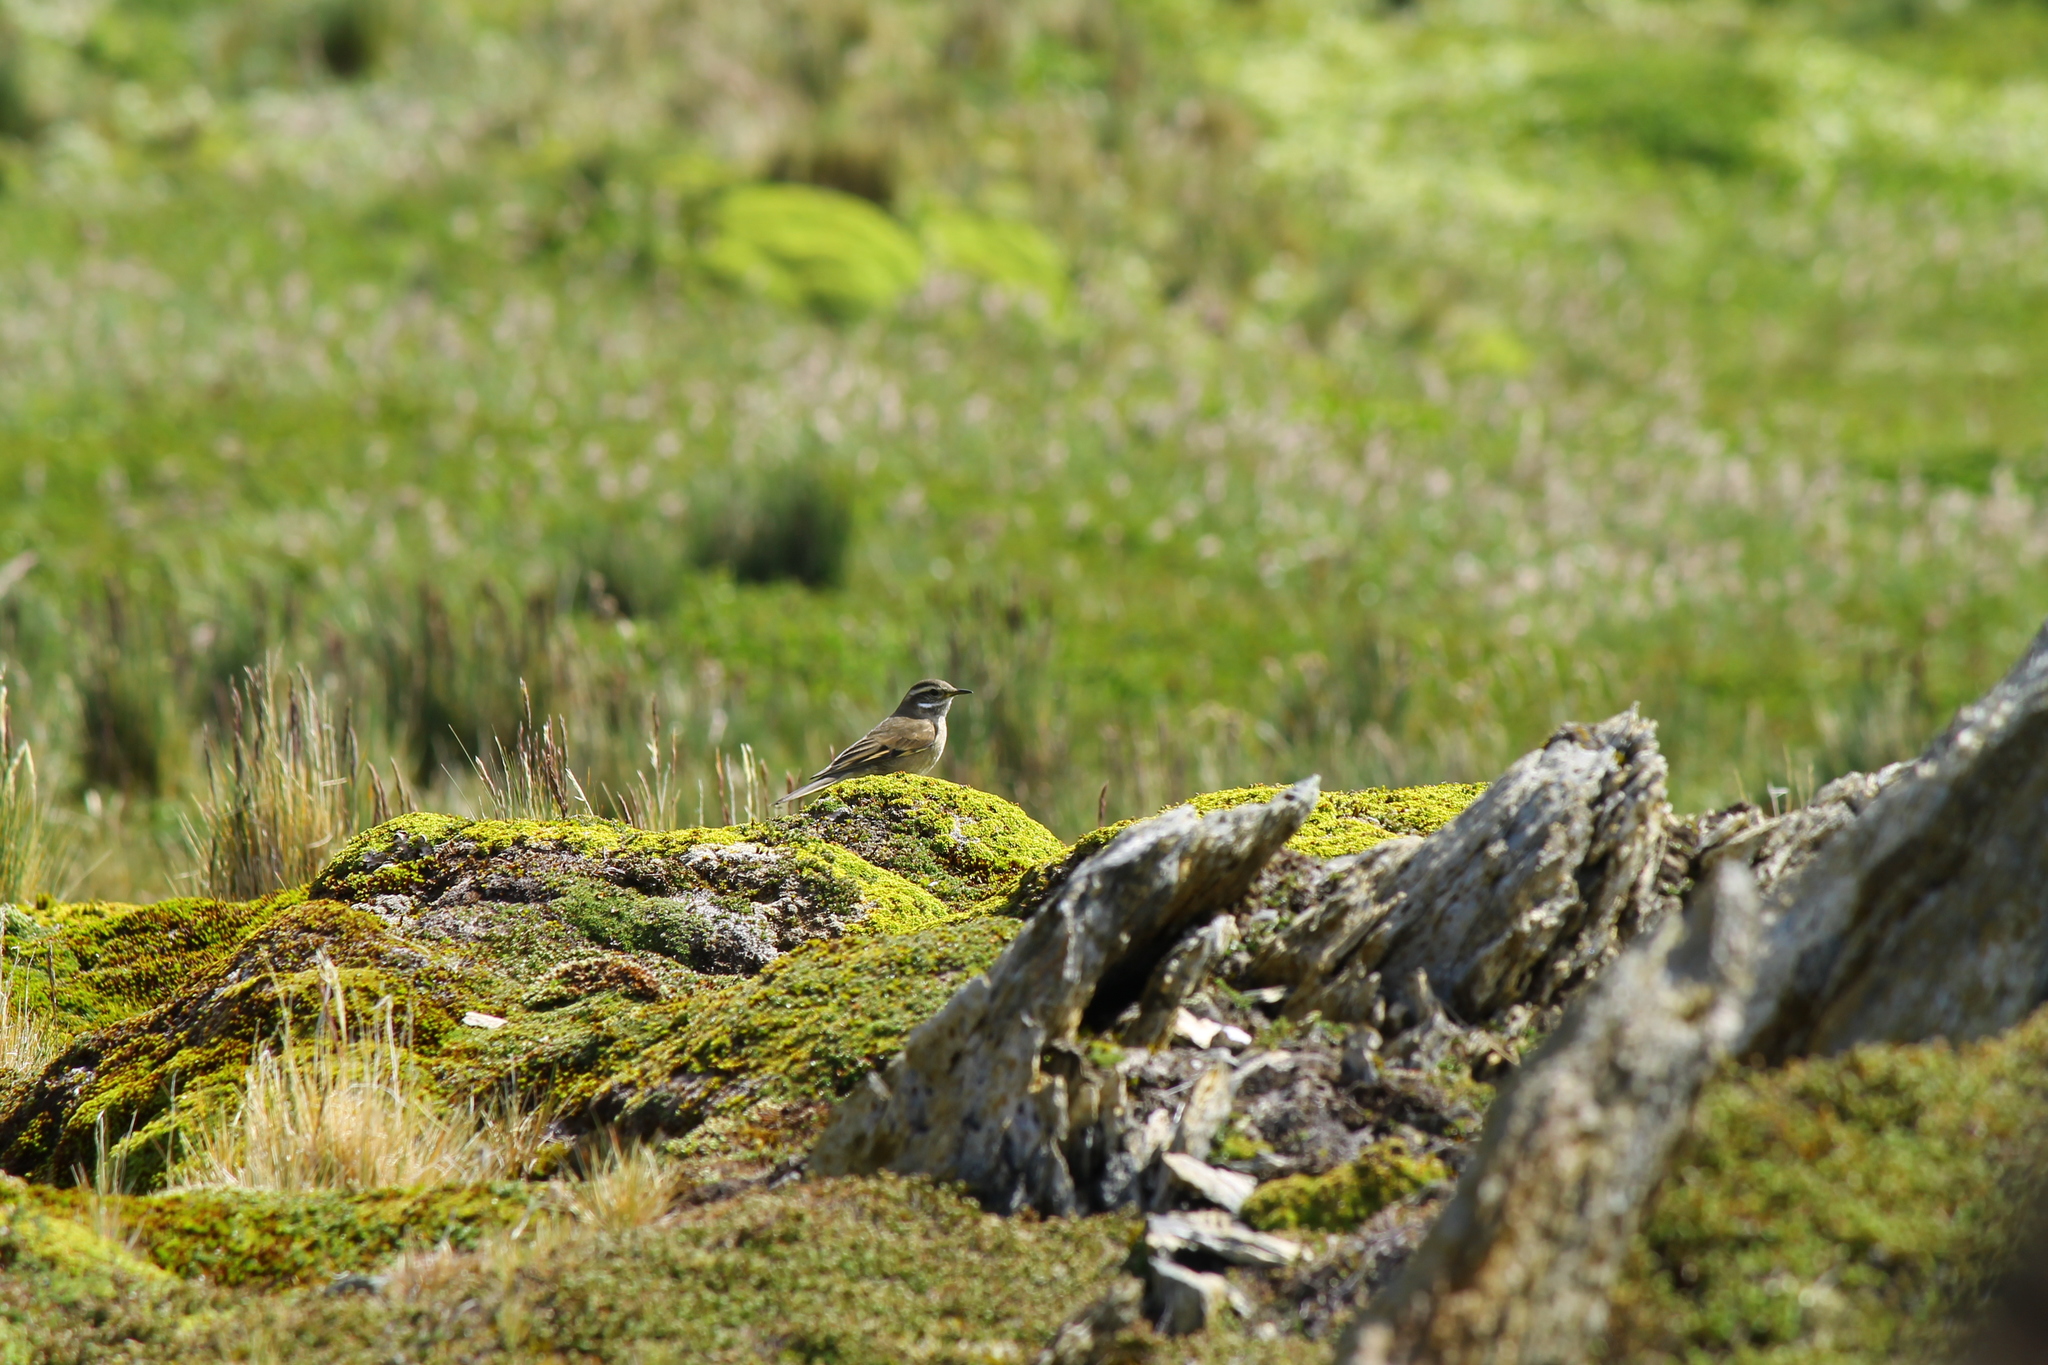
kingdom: Animalia
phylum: Chordata
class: Aves
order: Passeriformes
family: Furnariidae
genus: Cinclodes
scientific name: Cinclodes fuscus
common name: Buff-winged cinclodes
